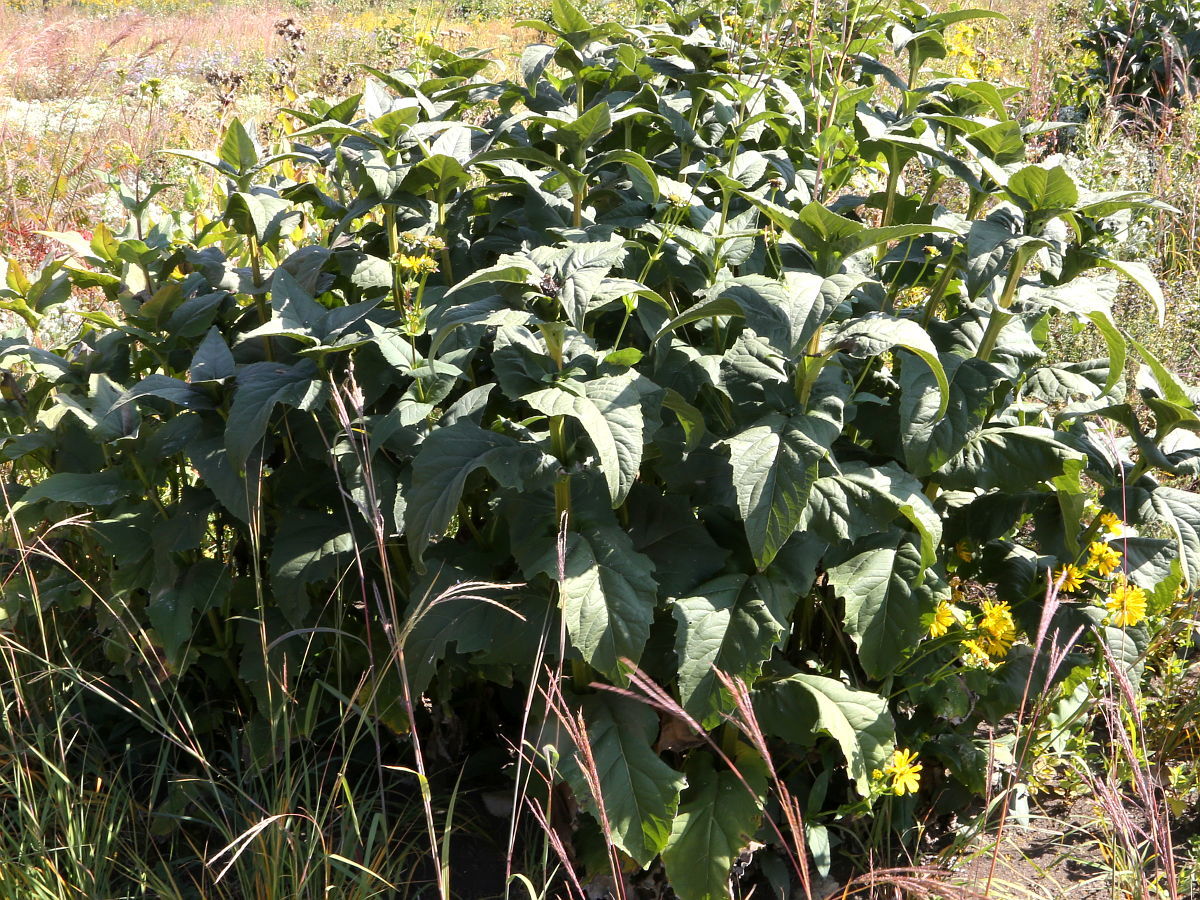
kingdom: Plantae
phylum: Tracheophyta
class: Magnoliopsida
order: Asterales
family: Asteraceae
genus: Silphium
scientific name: Silphium perfoliatum
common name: Cup-plant
